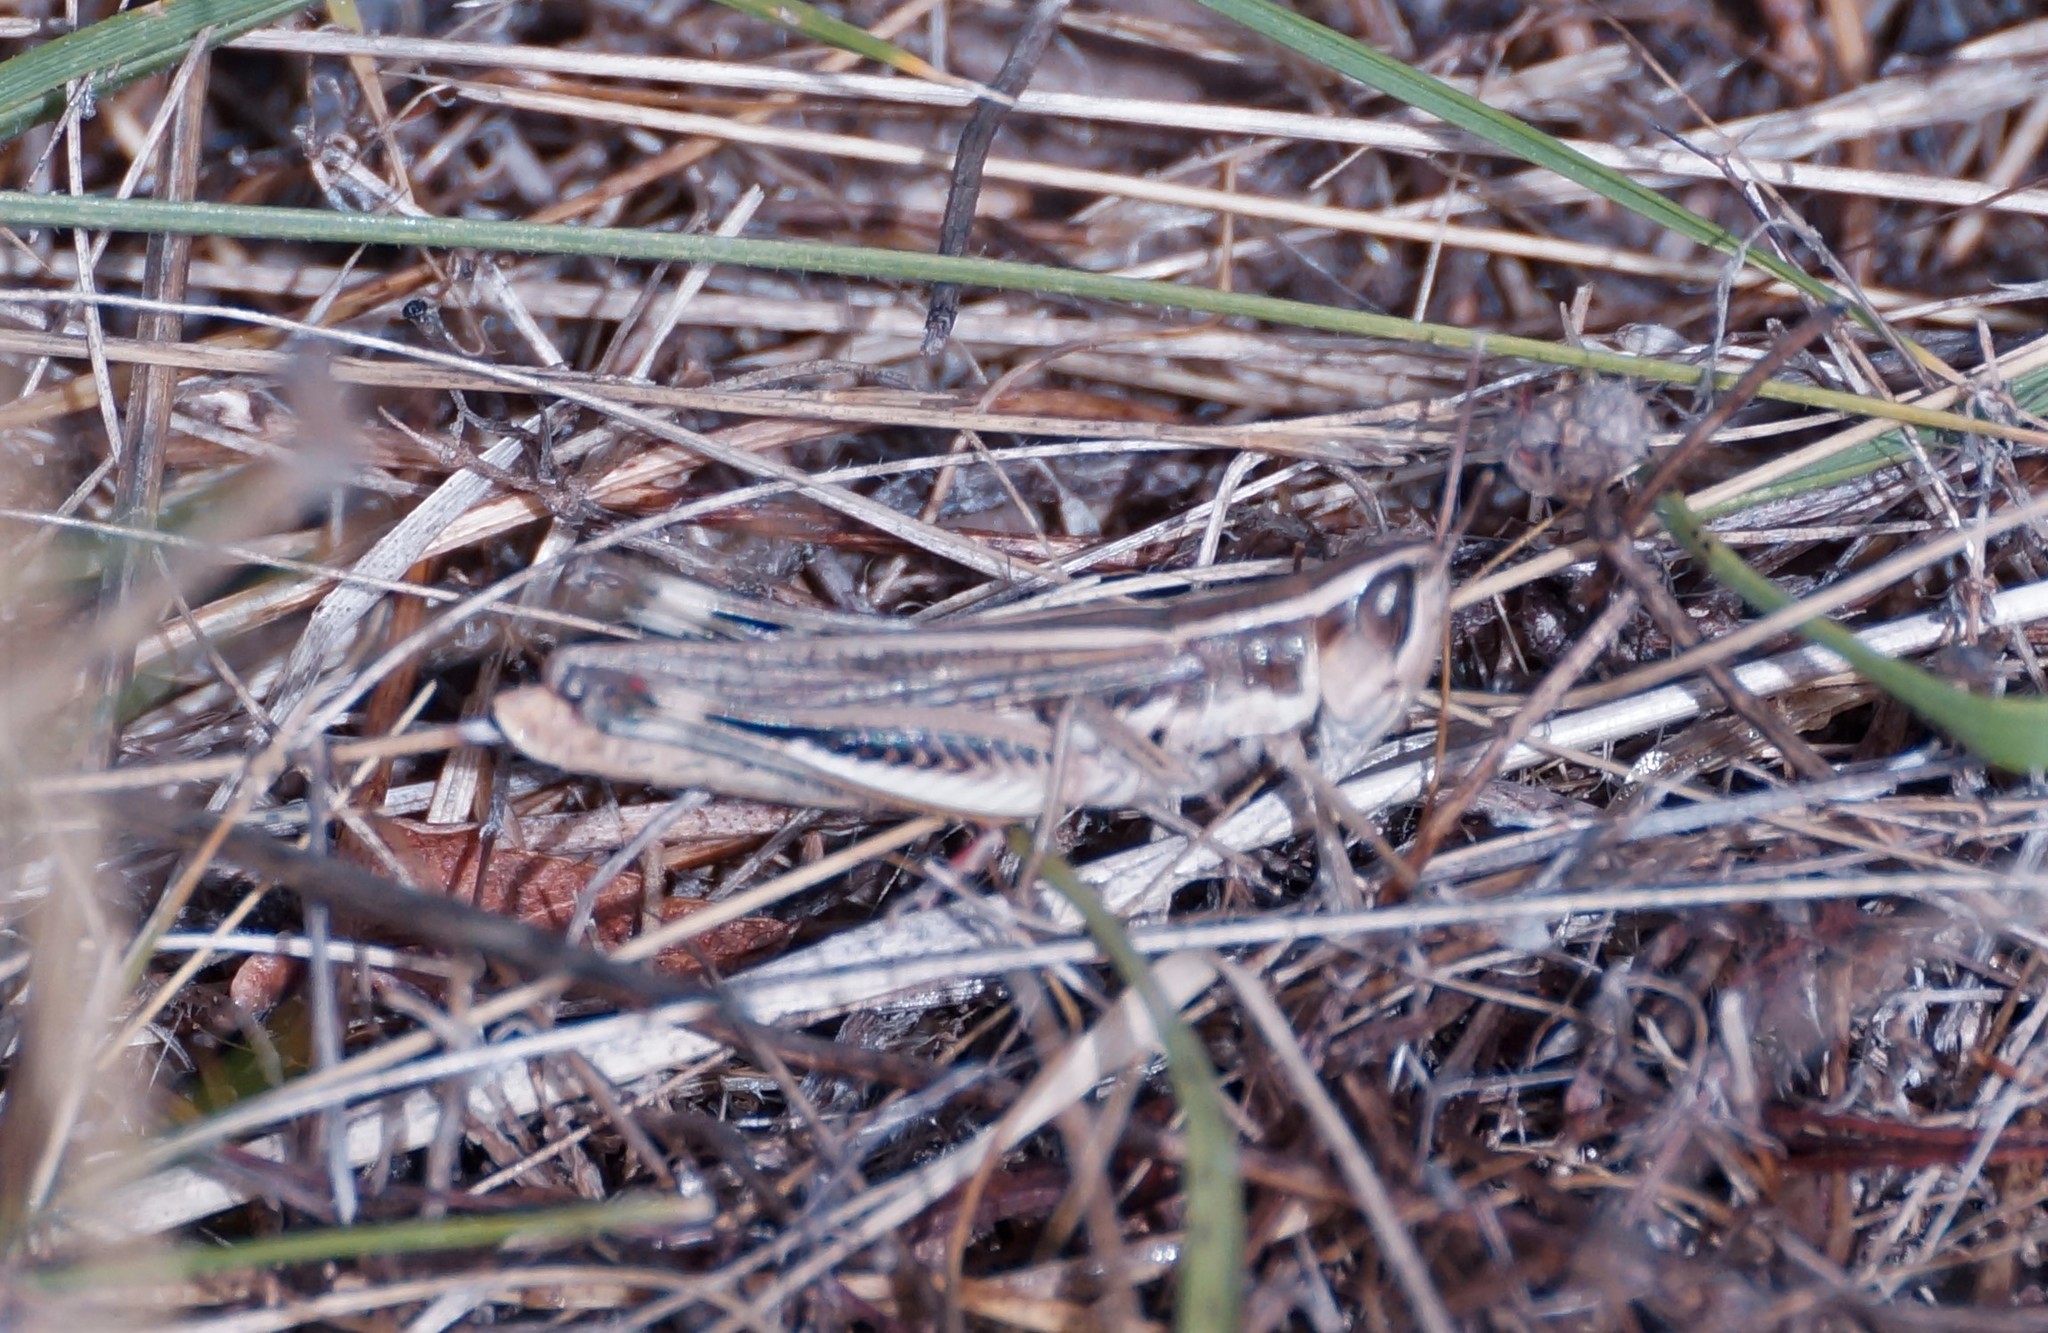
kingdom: Animalia
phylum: Arthropoda
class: Insecta
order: Orthoptera
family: Acrididae
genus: Macrotona
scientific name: Macrotona securiformis
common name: Inland macrotona
